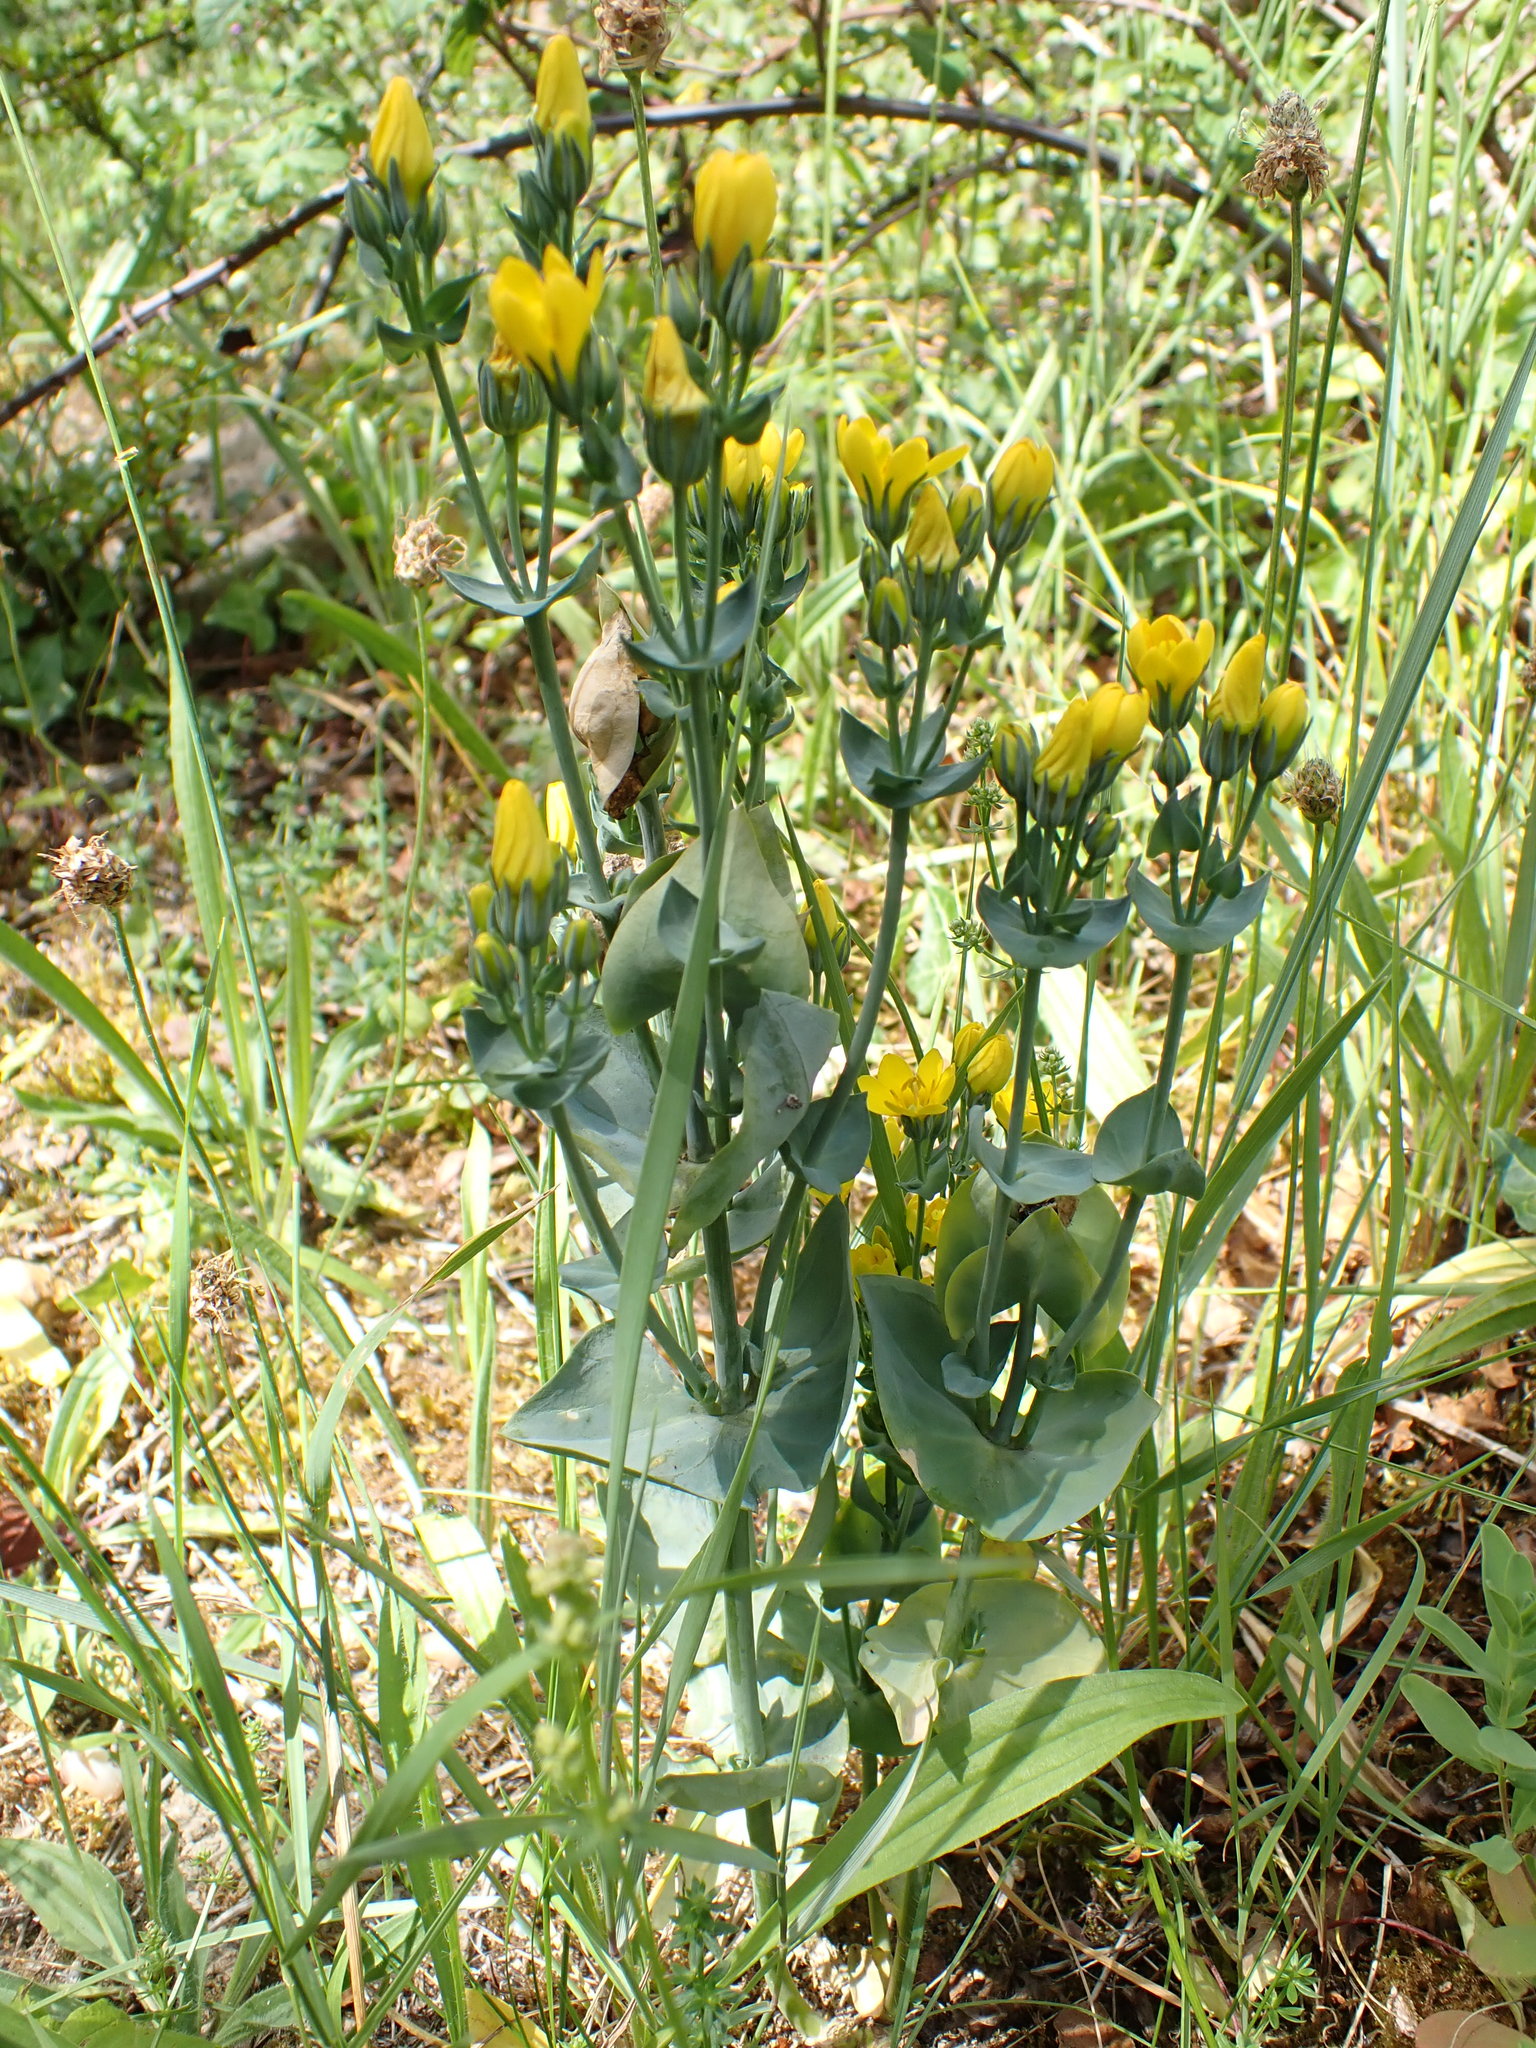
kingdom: Plantae
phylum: Tracheophyta
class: Magnoliopsida
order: Gentianales
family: Gentianaceae
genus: Blackstonia
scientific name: Blackstonia perfoliata
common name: Yellow-wort
